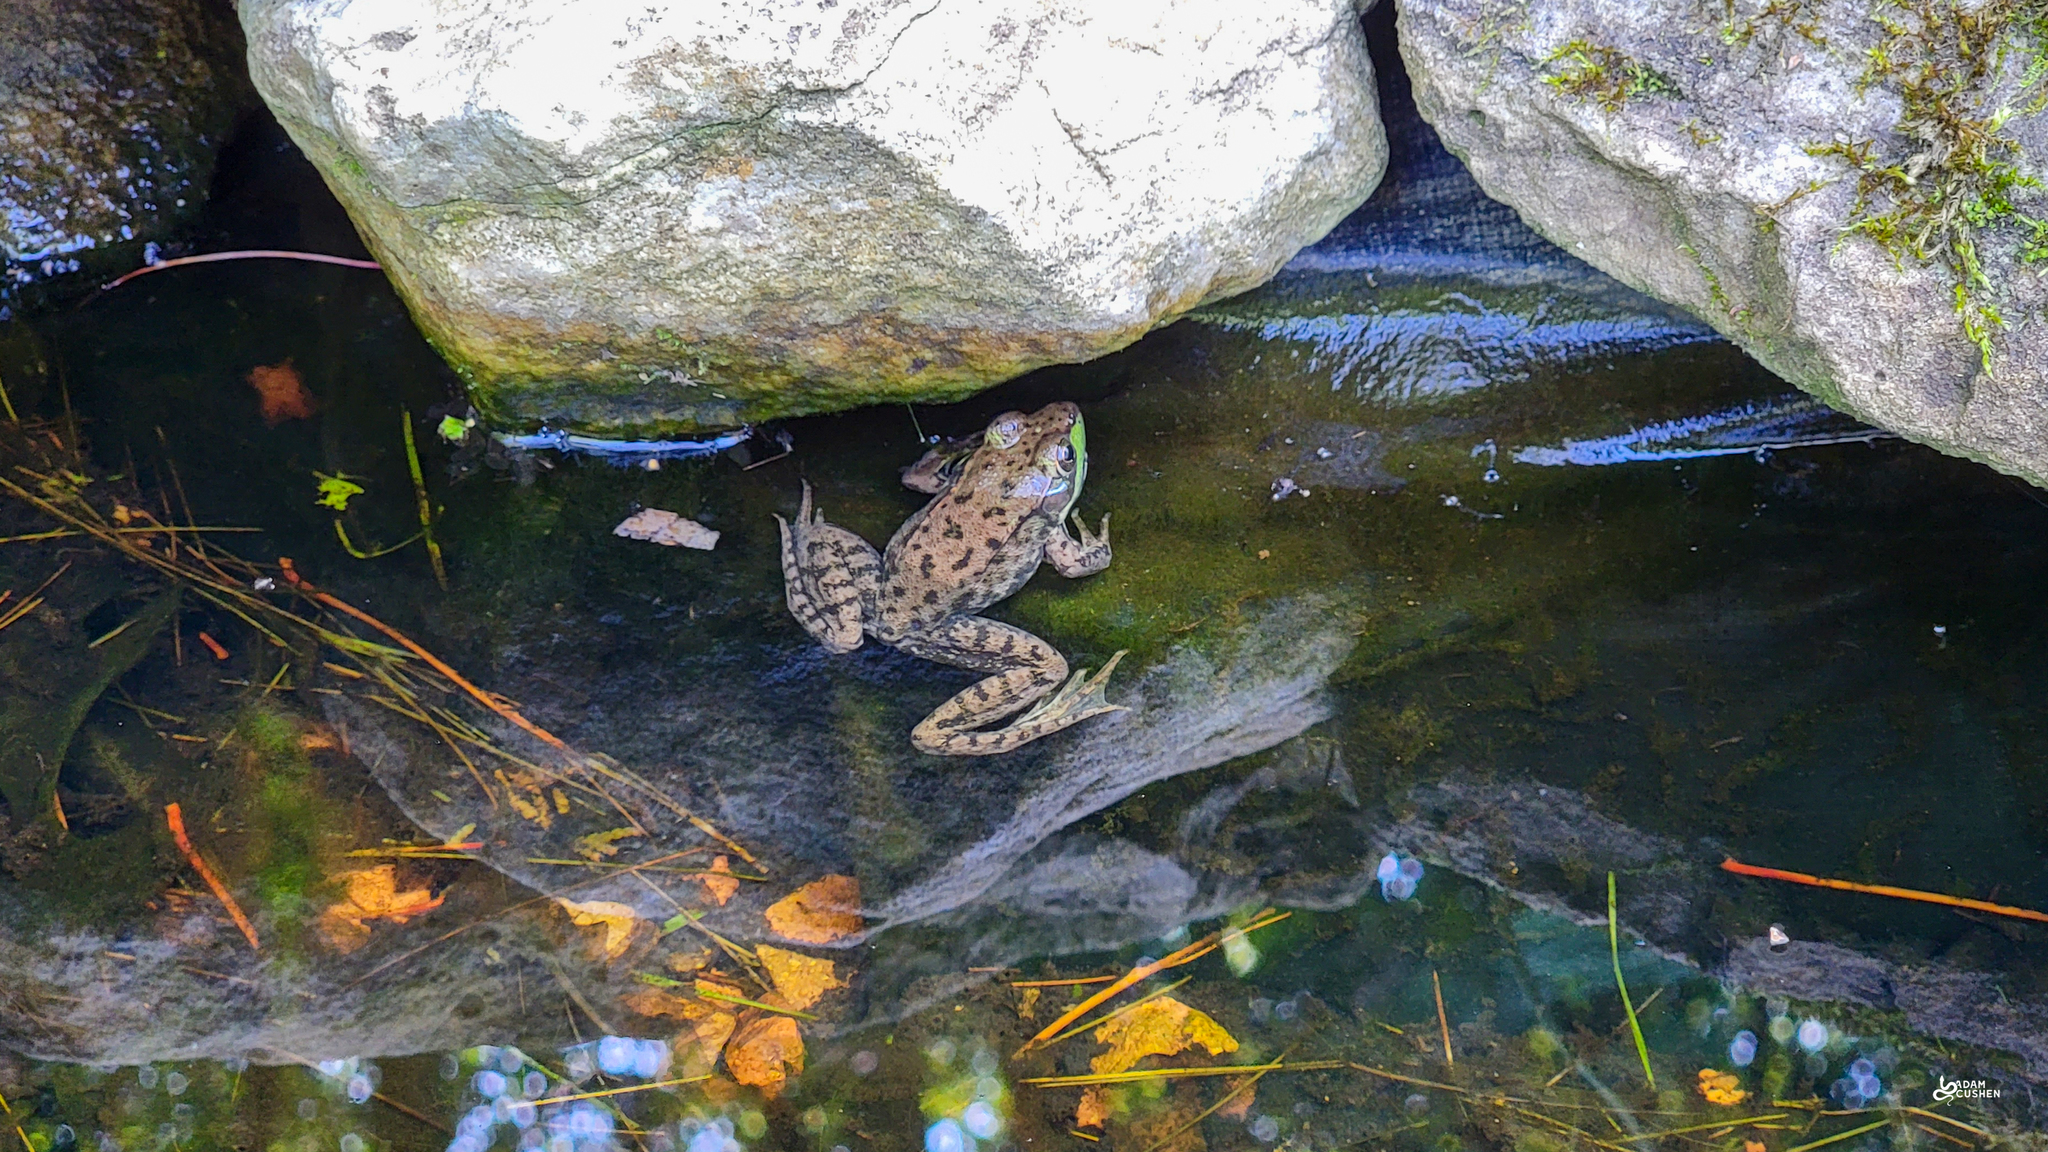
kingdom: Animalia
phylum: Chordata
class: Amphibia
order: Anura
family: Ranidae
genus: Lithobates
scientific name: Lithobates clamitans
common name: Green frog
